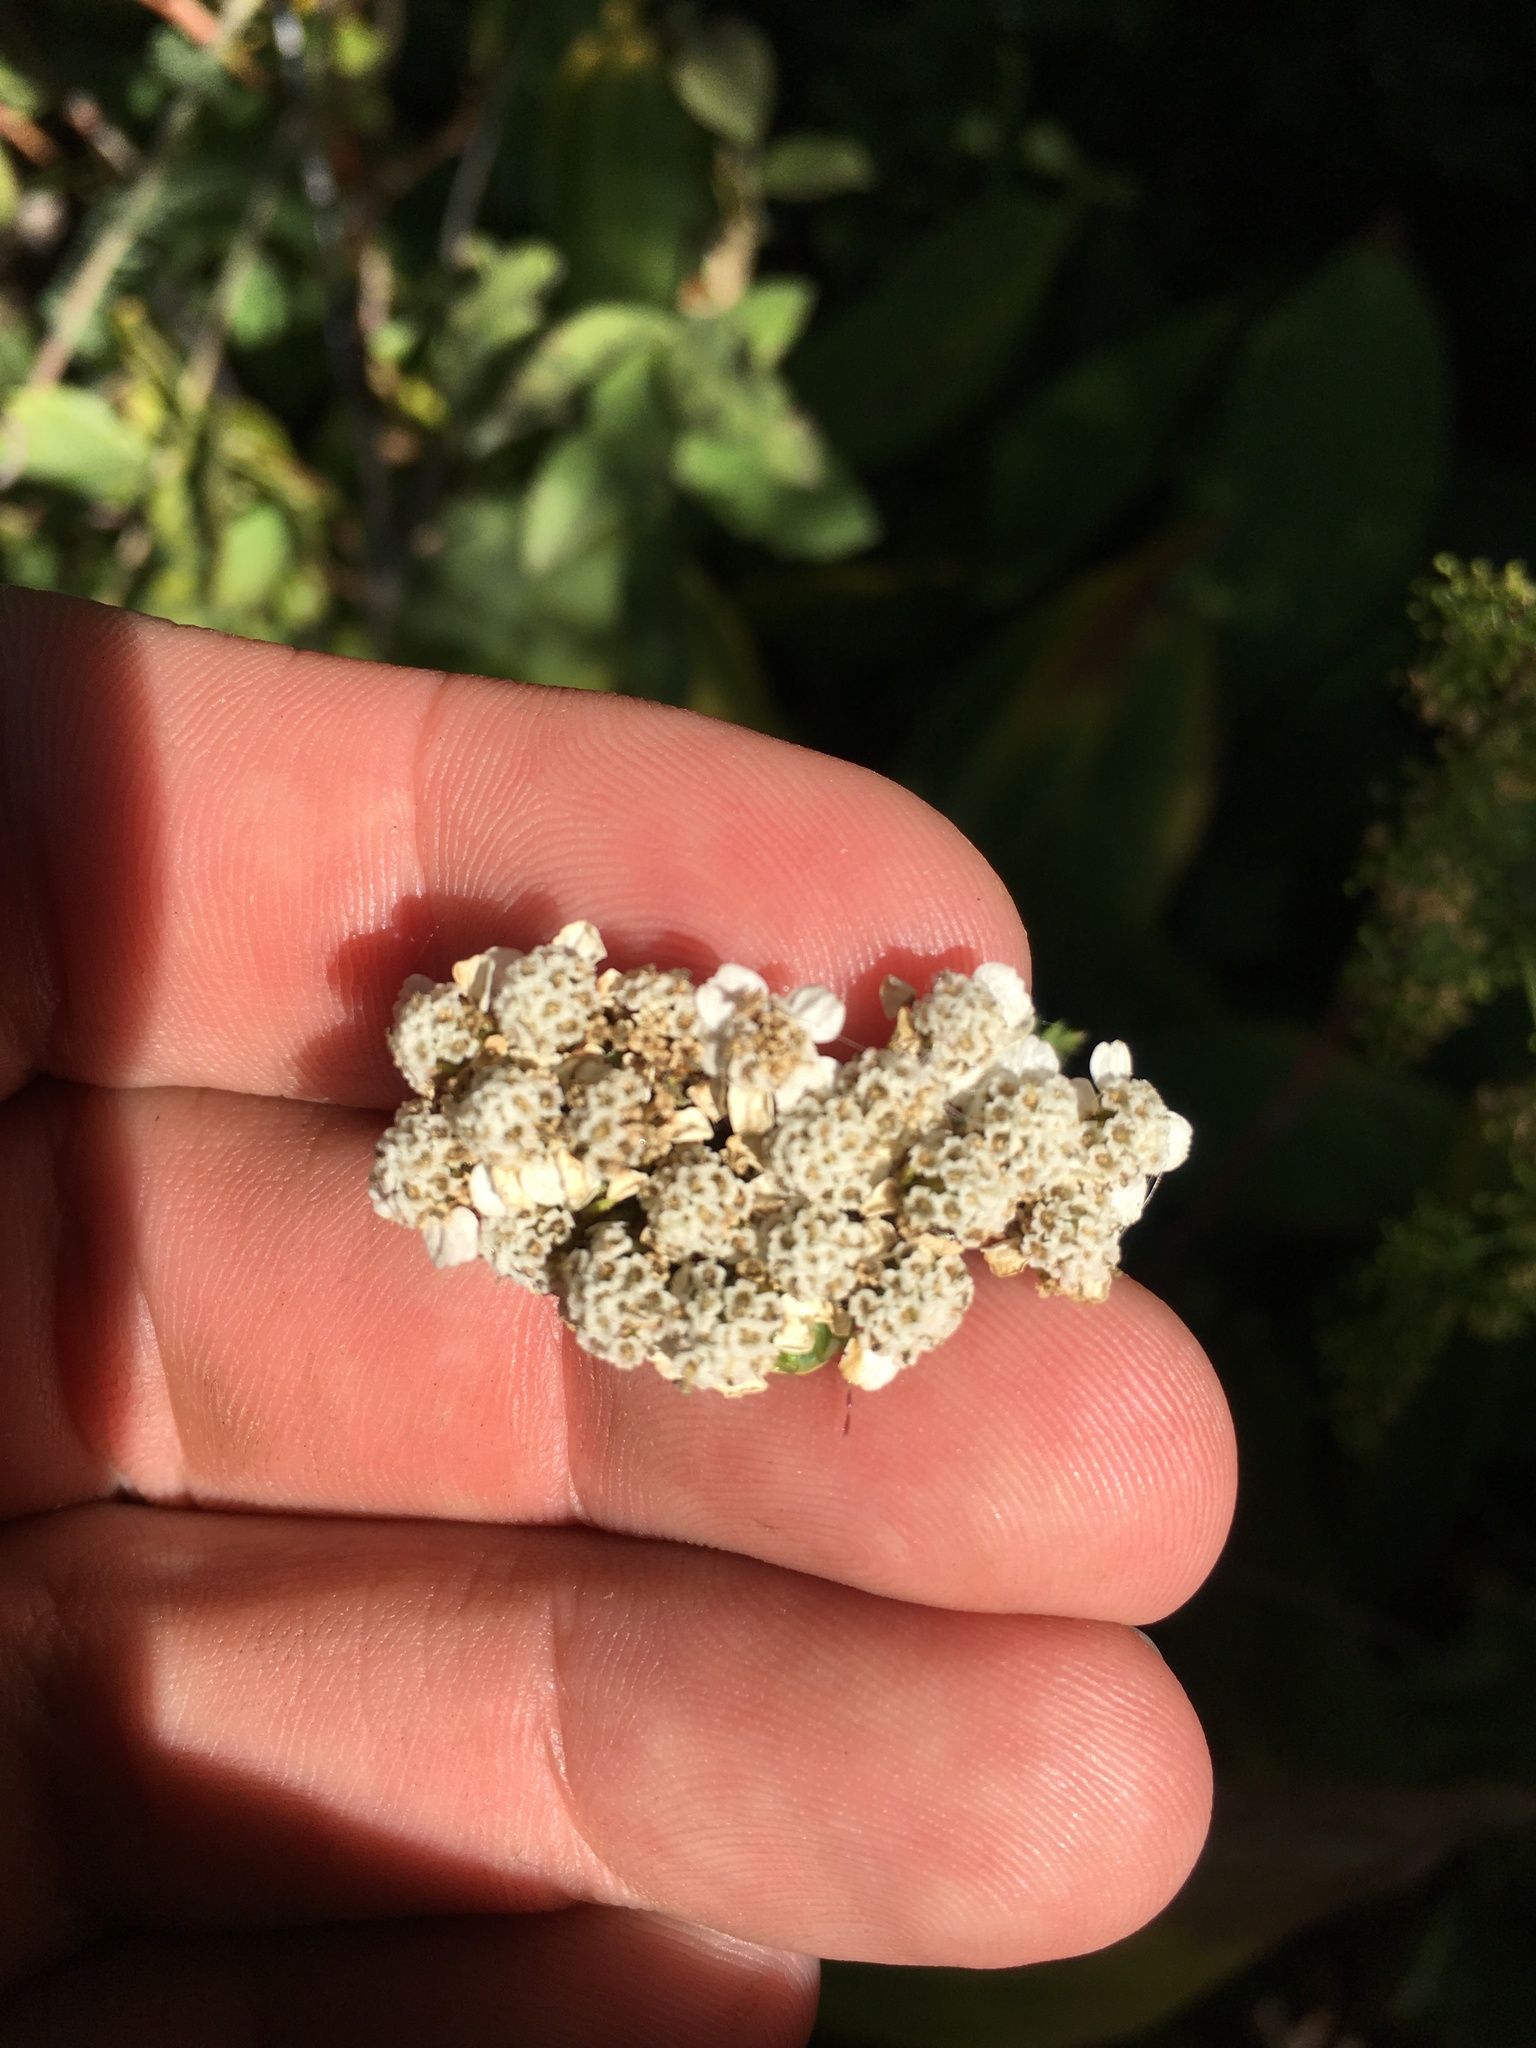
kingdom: Plantae
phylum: Tracheophyta
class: Magnoliopsida
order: Asterales
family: Asteraceae
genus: Achillea
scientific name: Achillea millefolium
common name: Yarrow
